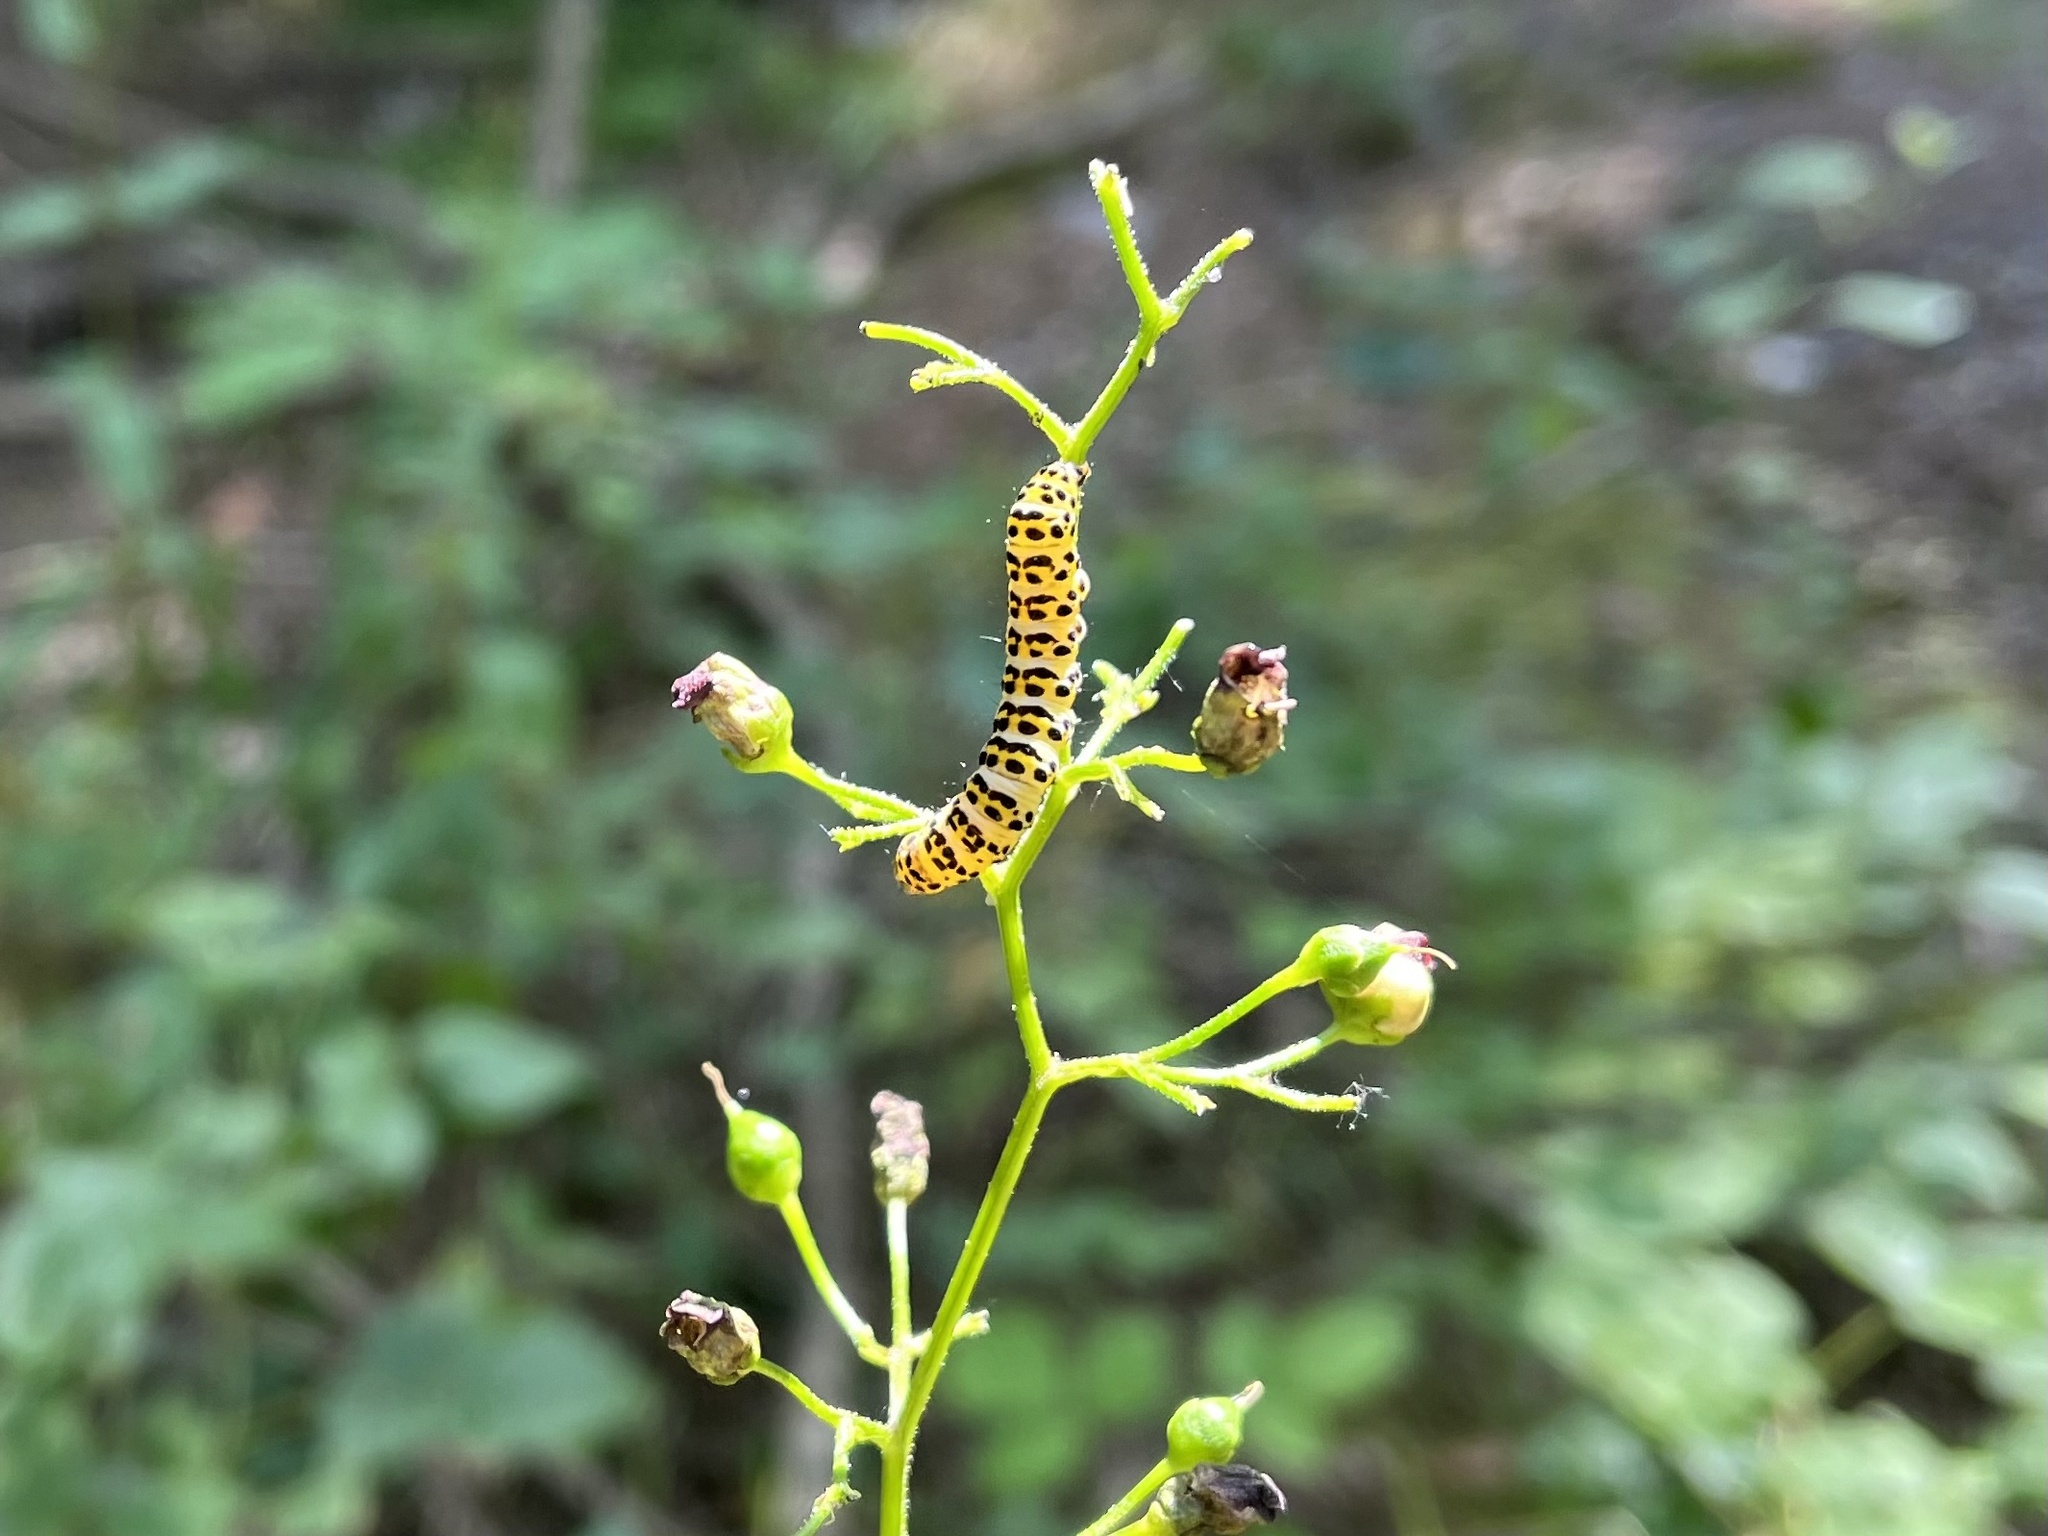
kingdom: Animalia
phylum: Arthropoda
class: Insecta
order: Lepidoptera
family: Noctuidae
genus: Shargacucullia
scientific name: Shargacucullia scrophulariae
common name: Water betony
